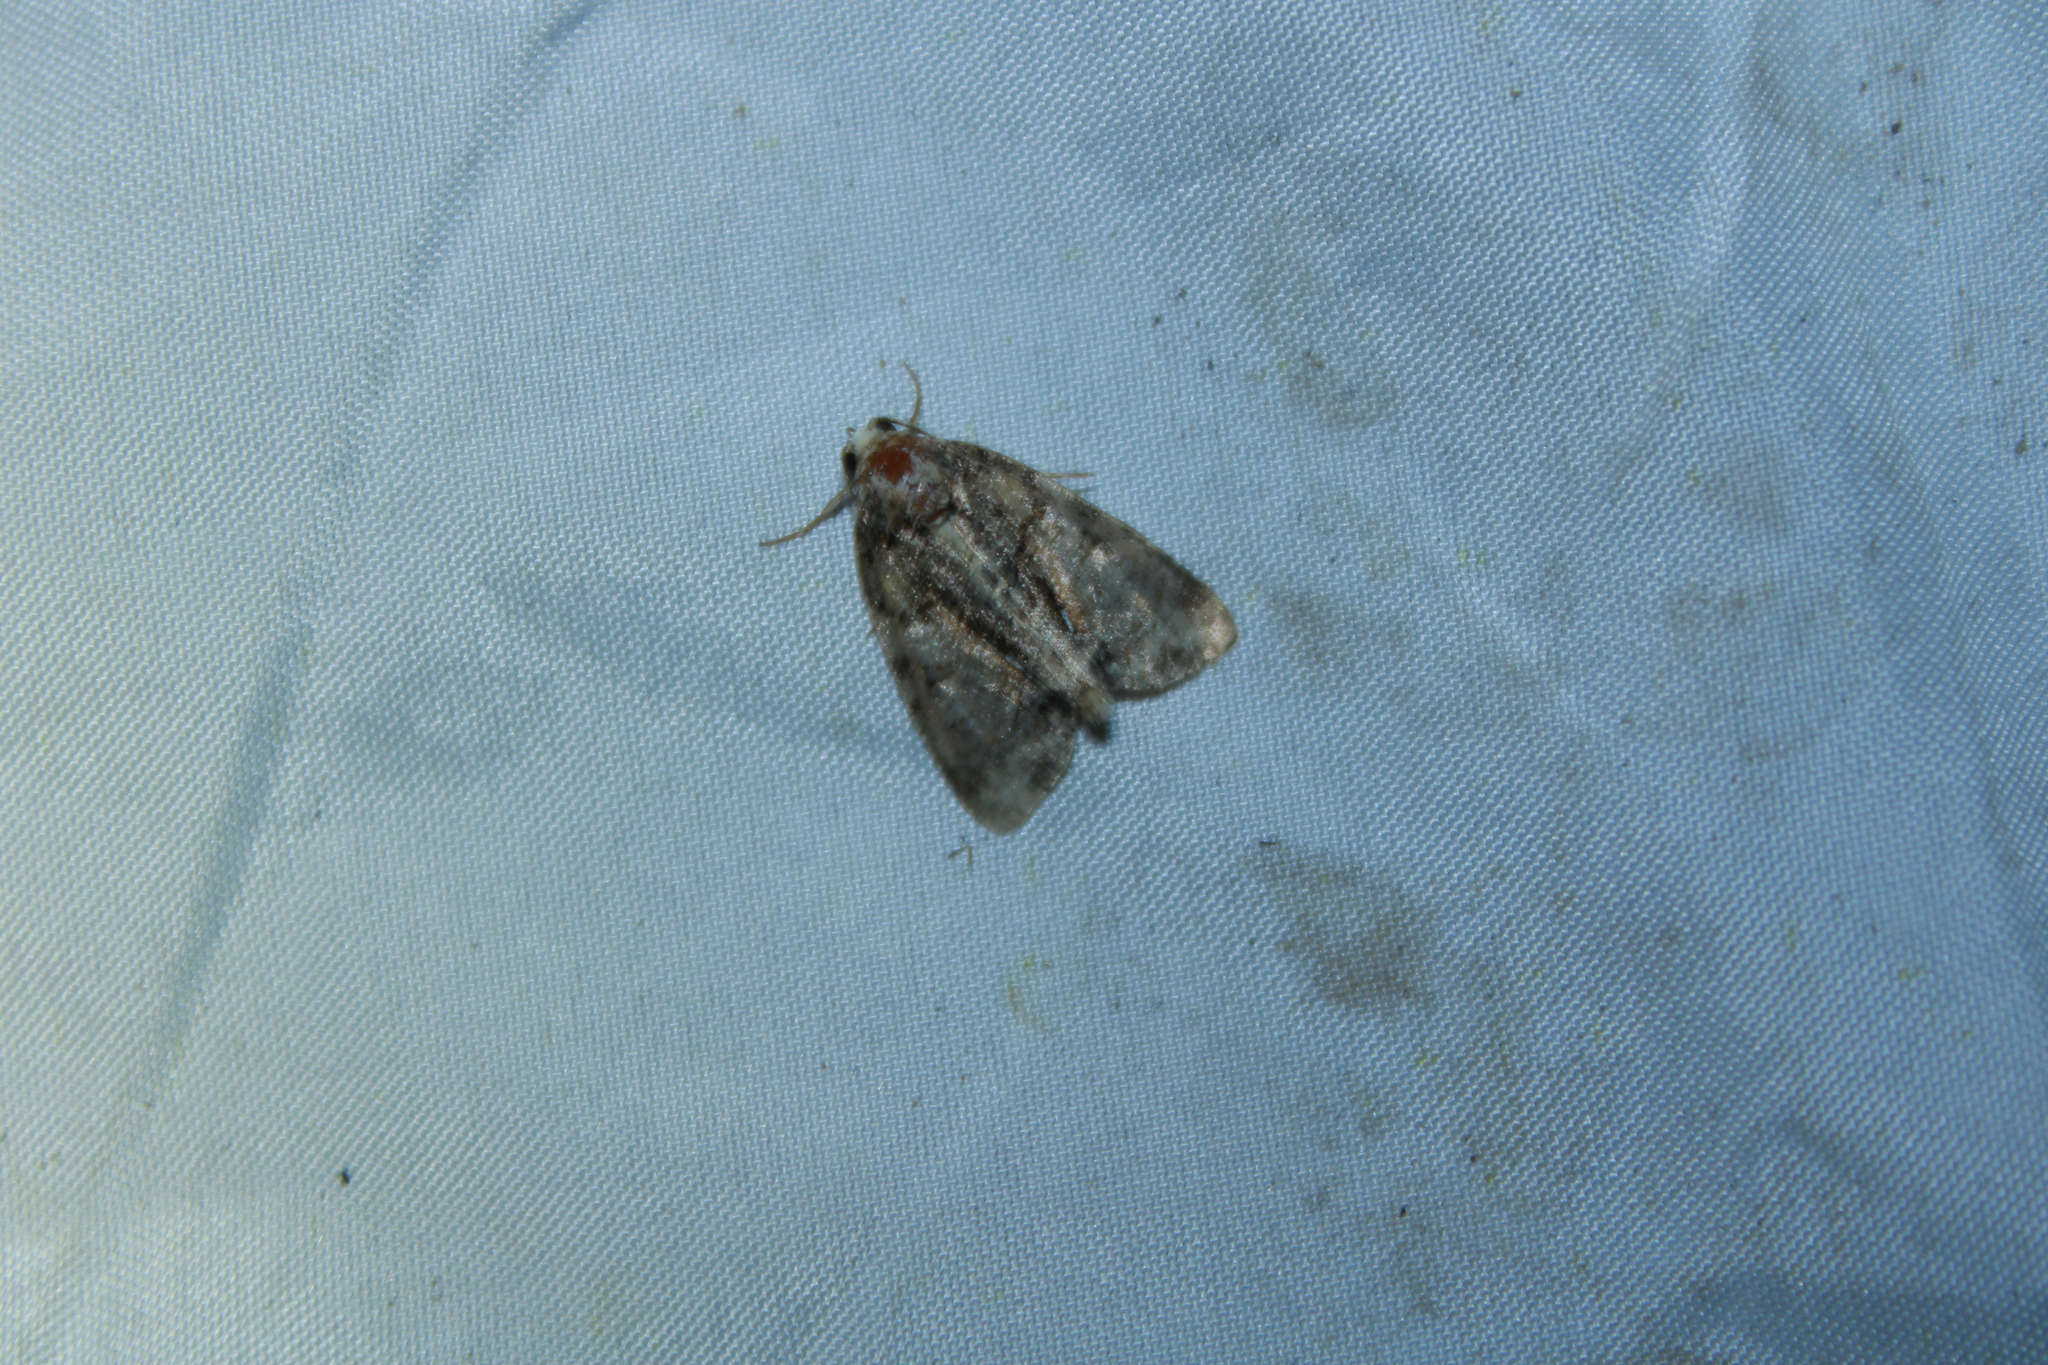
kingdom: Animalia
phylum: Arthropoda
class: Insecta
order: Lepidoptera
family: Noctuidae
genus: Chytonix
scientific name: Chytonix palliatricula
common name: Cloaked marvel
